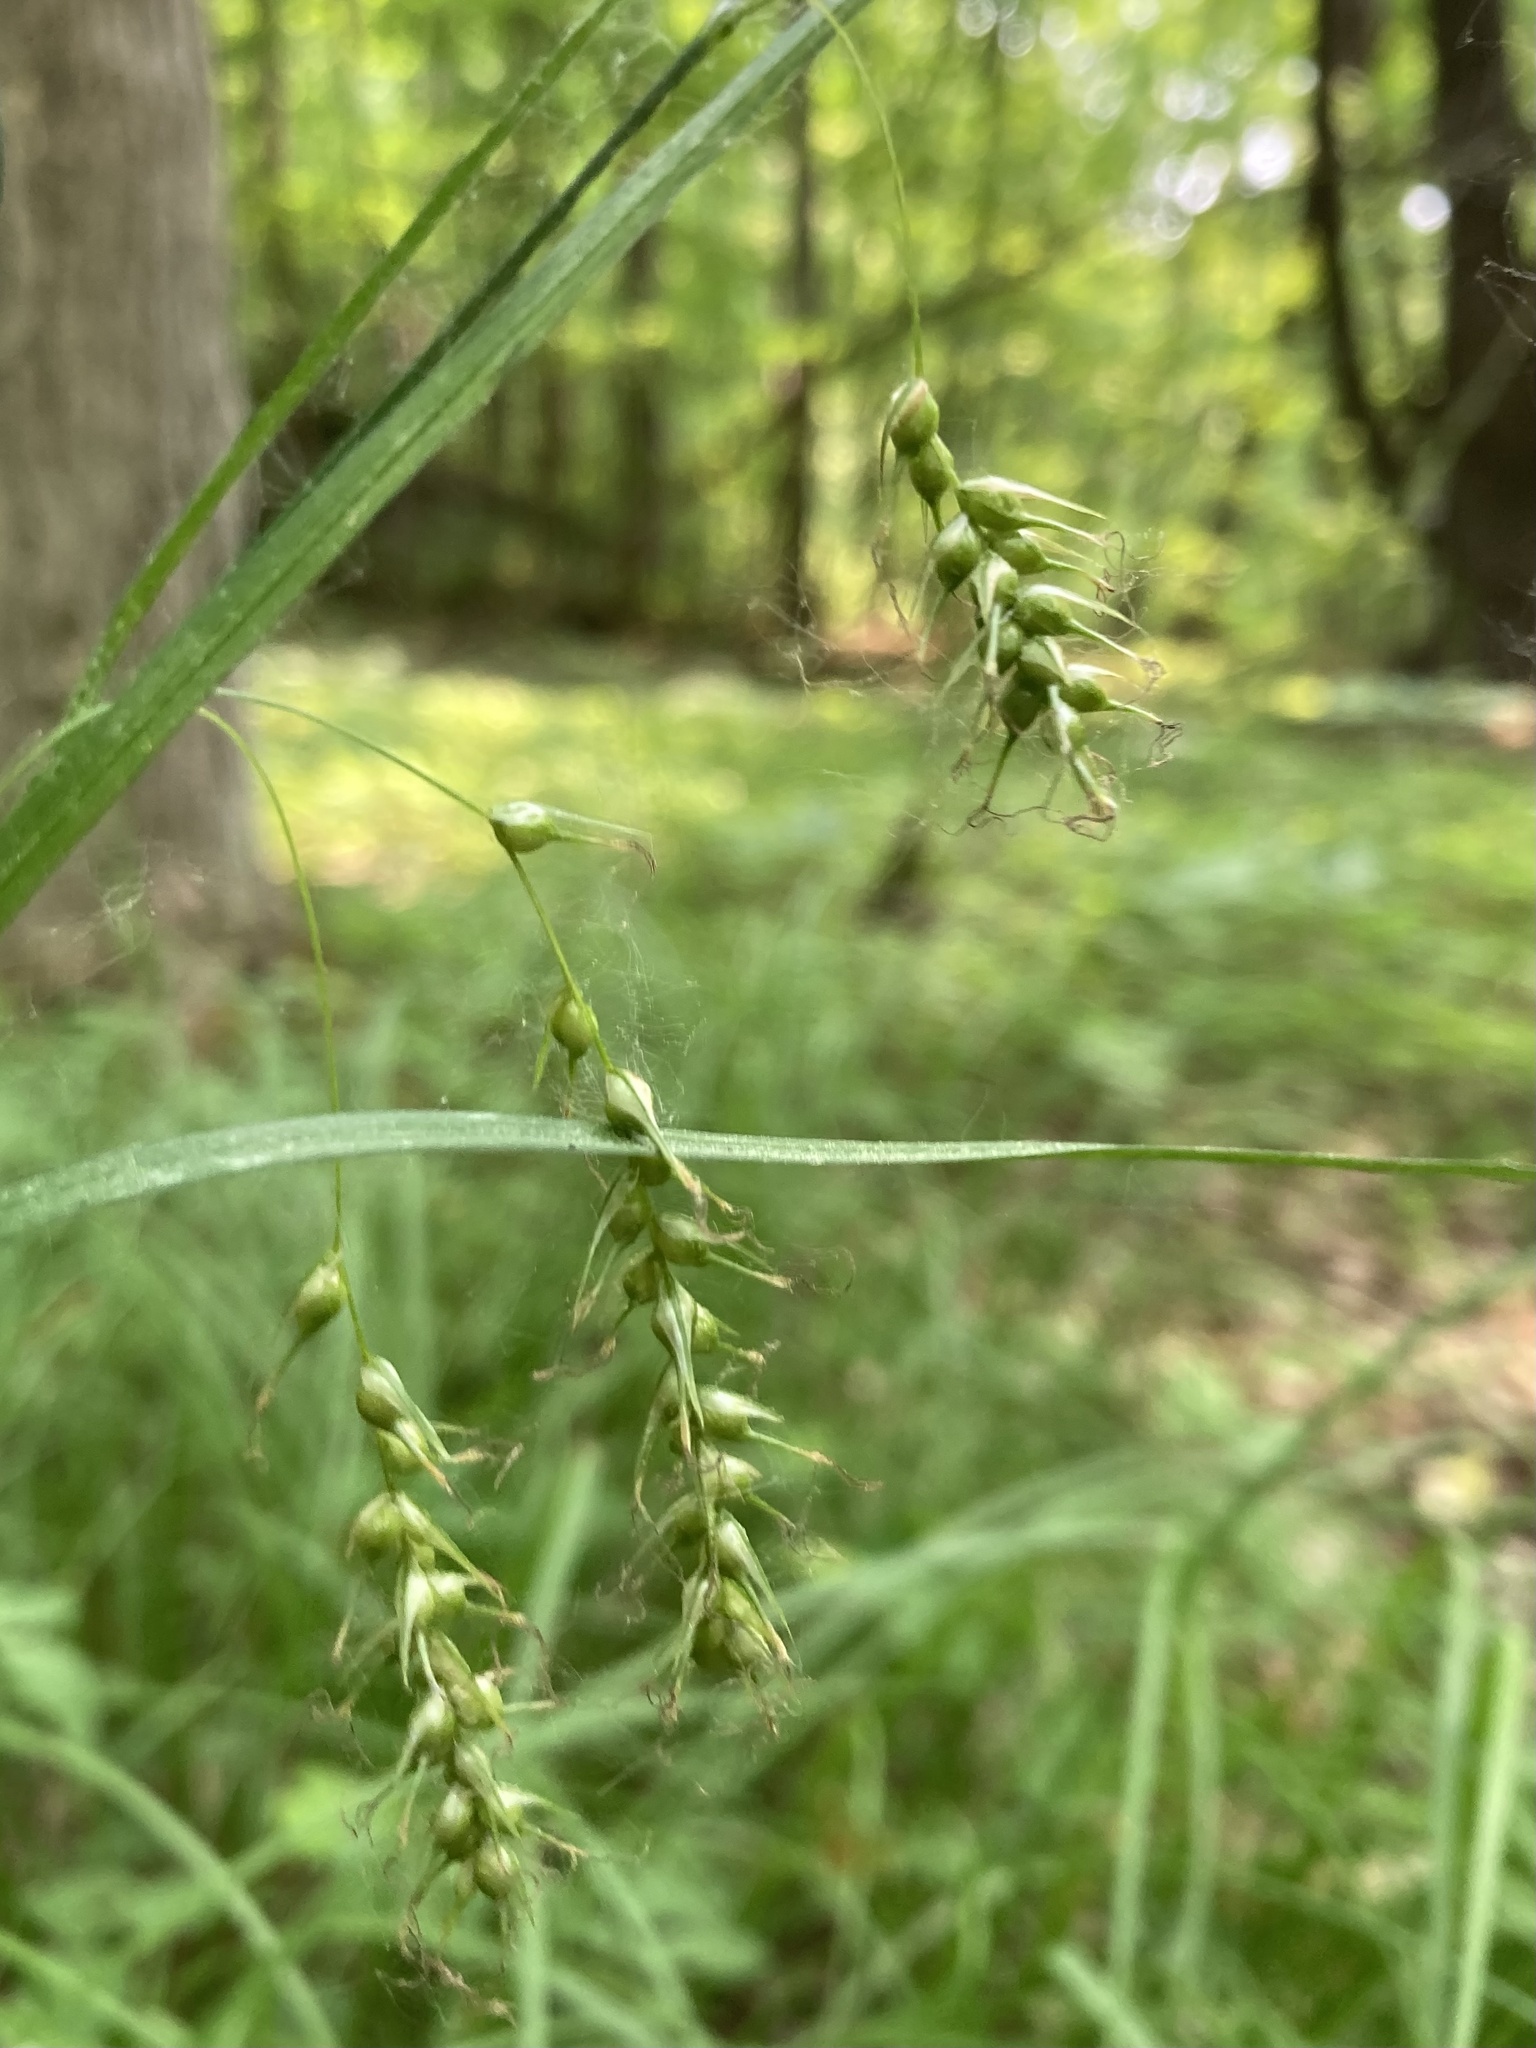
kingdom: Plantae
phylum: Tracheophyta
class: Liliopsida
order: Poales
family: Cyperaceae
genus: Carex
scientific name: Carex sprengelii
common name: Long-beaked sedge
